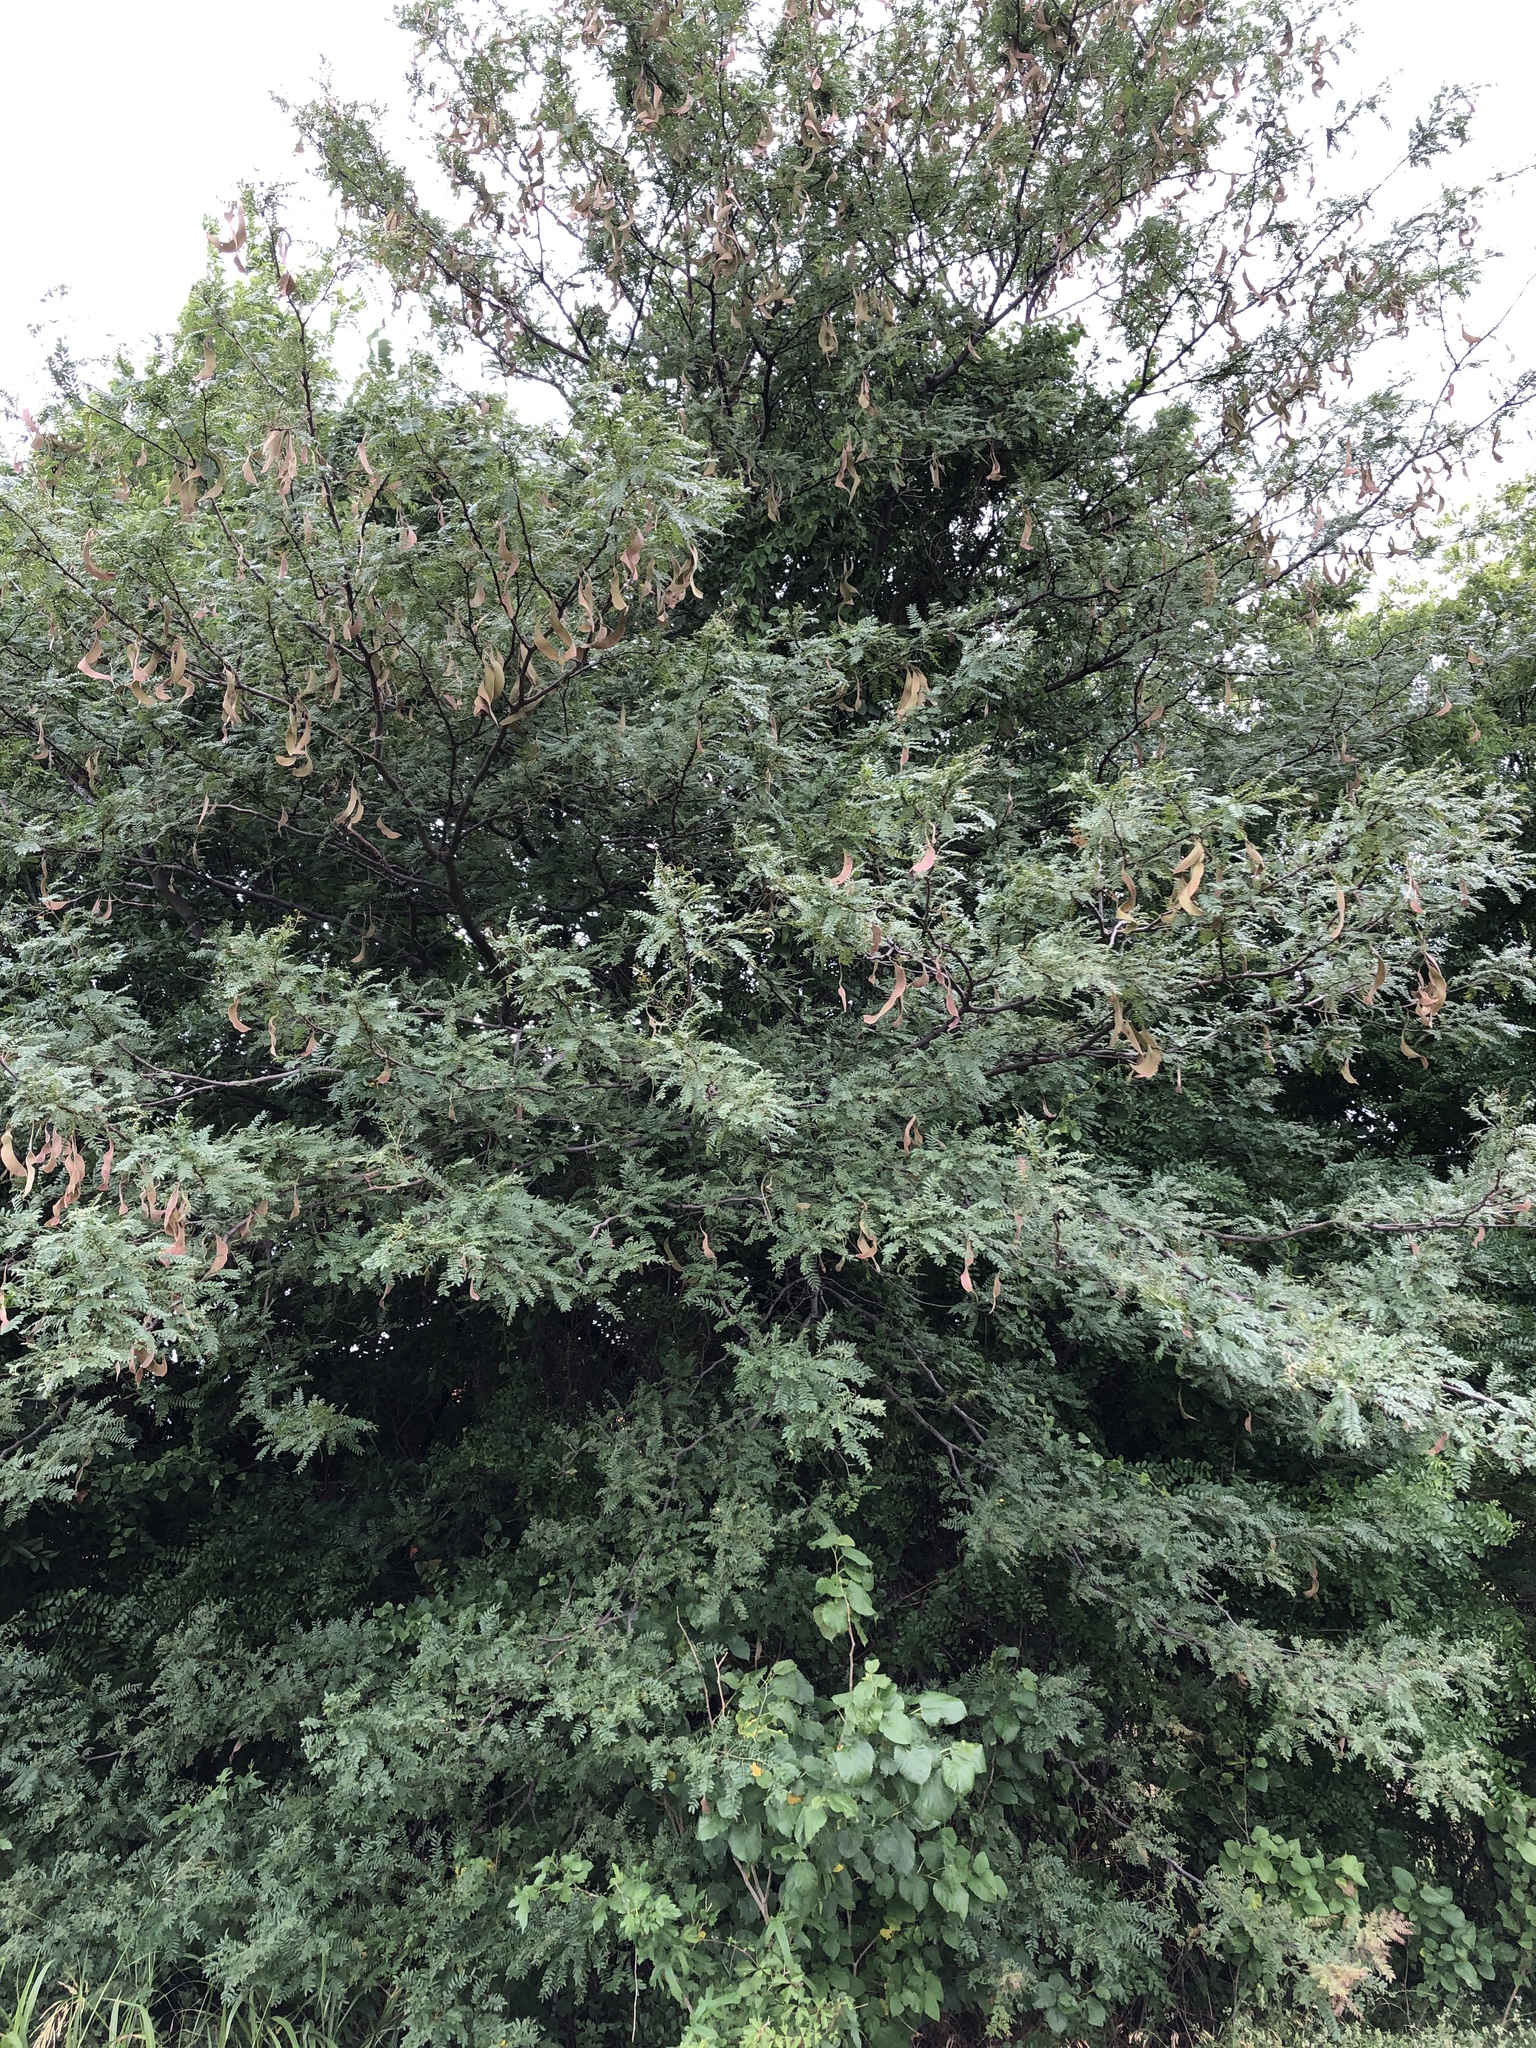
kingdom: Plantae
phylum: Tracheophyta
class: Magnoliopsida
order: Fabales
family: Fabaceae
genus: Gleditsia
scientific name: Gleditsia triacanthos
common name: Common honeylocust
